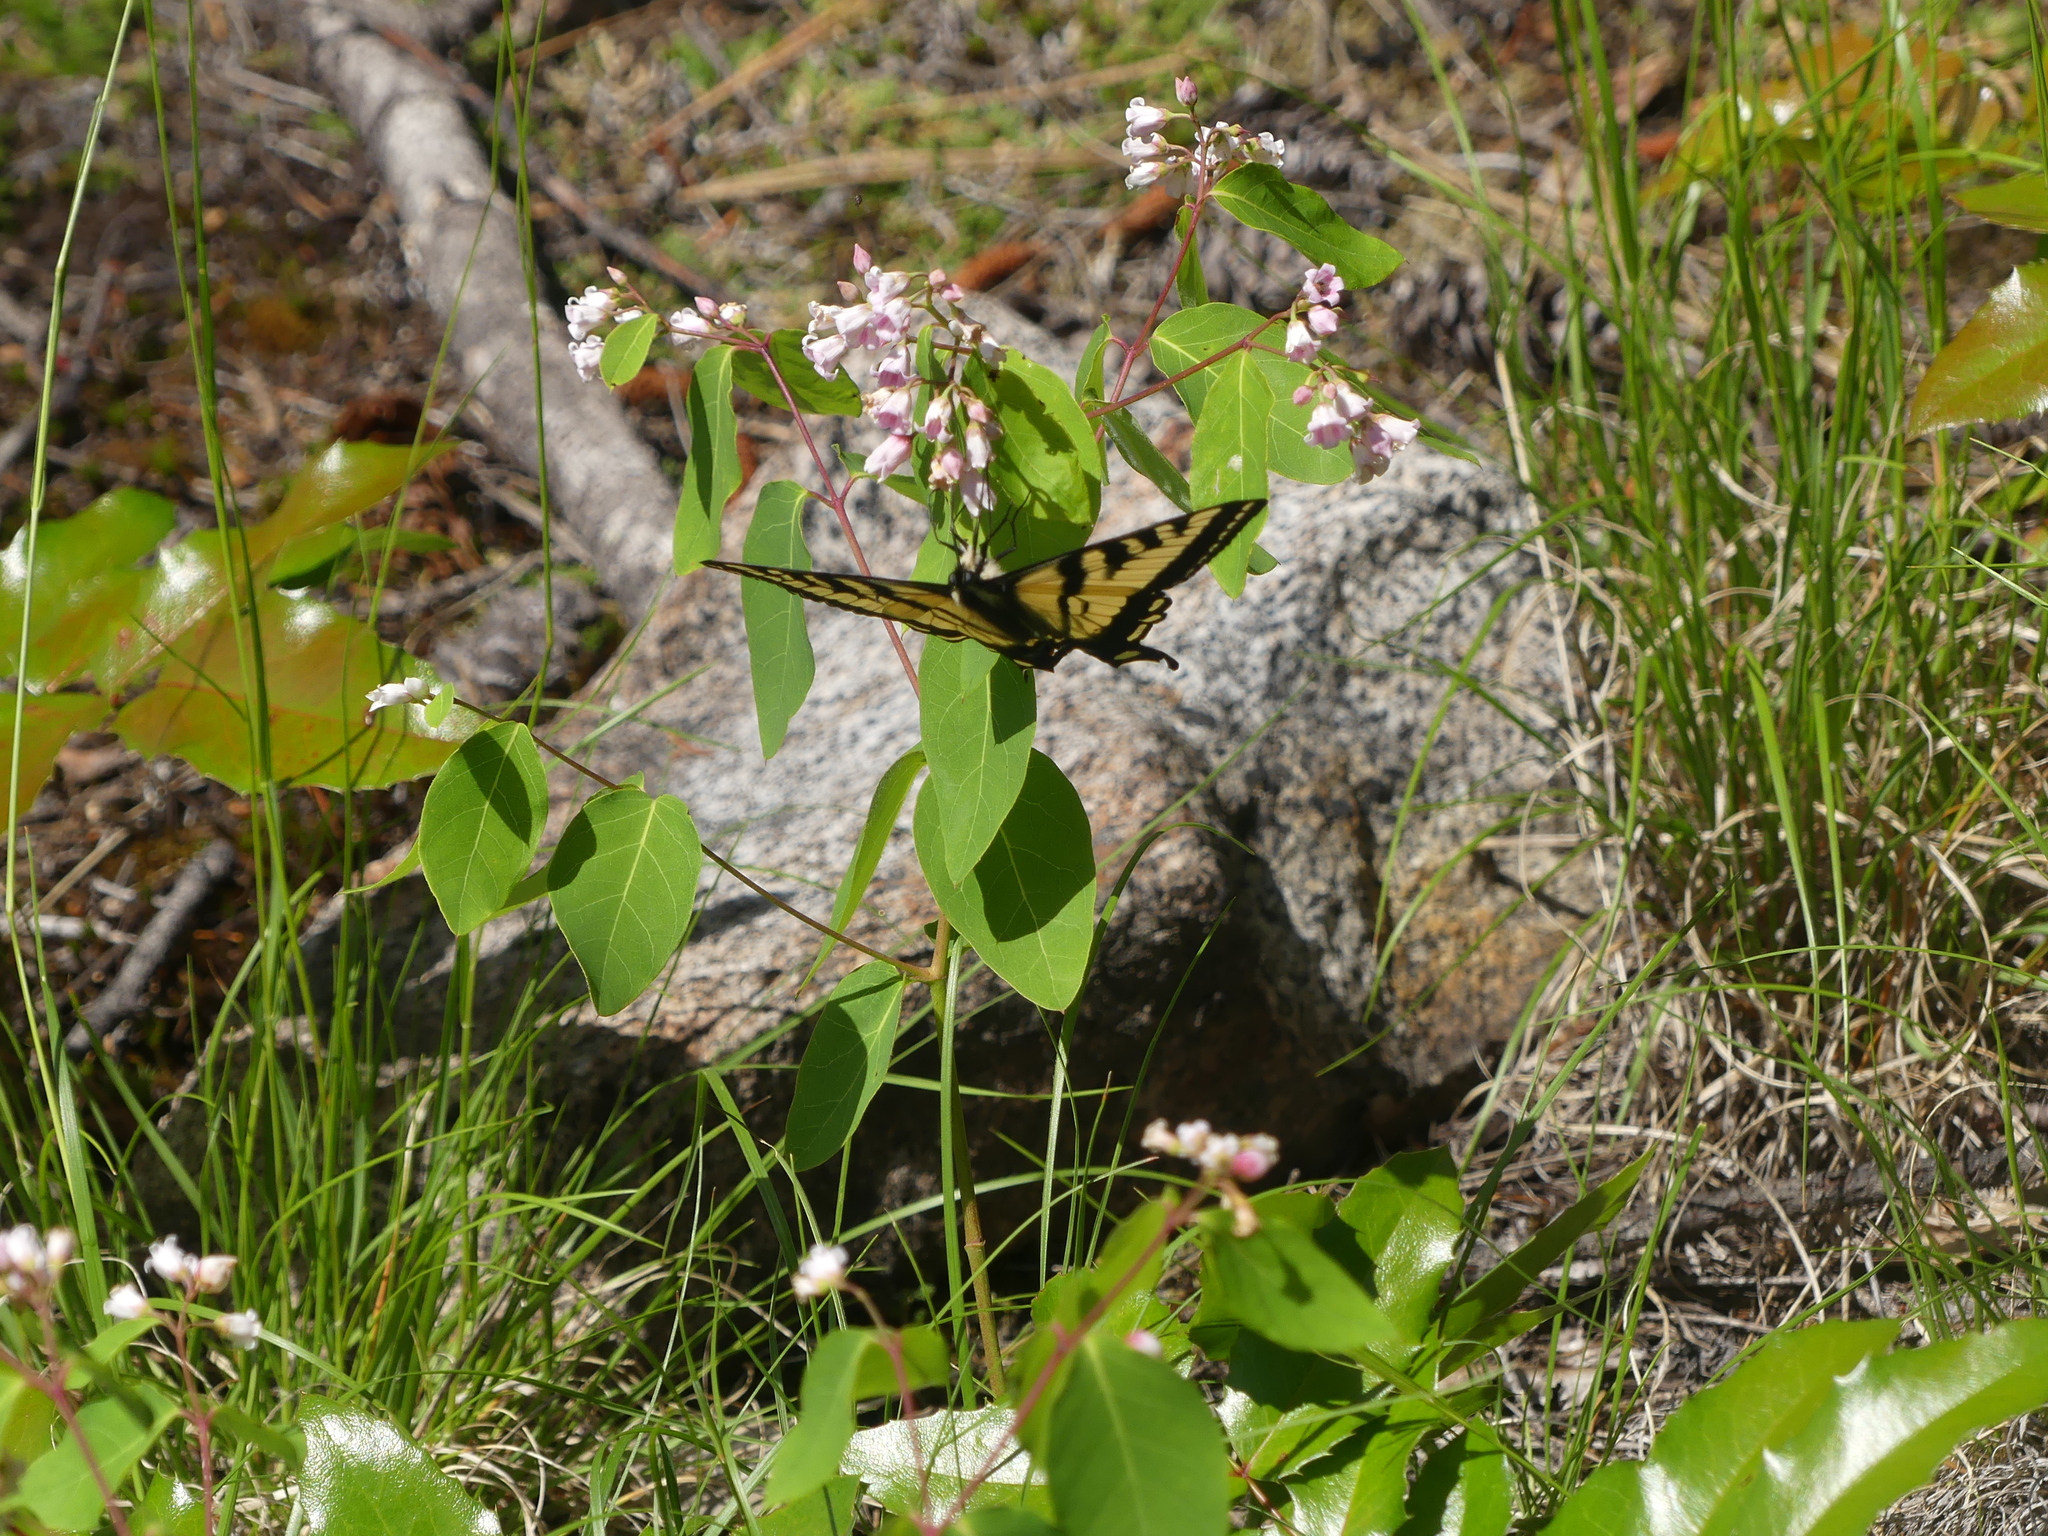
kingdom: Animalia
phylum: Arthropoda
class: Insecta
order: Lepidoptera
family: Papilionidae
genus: Papilio
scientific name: Papilio rutulus
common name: Western tiger swallowtail
